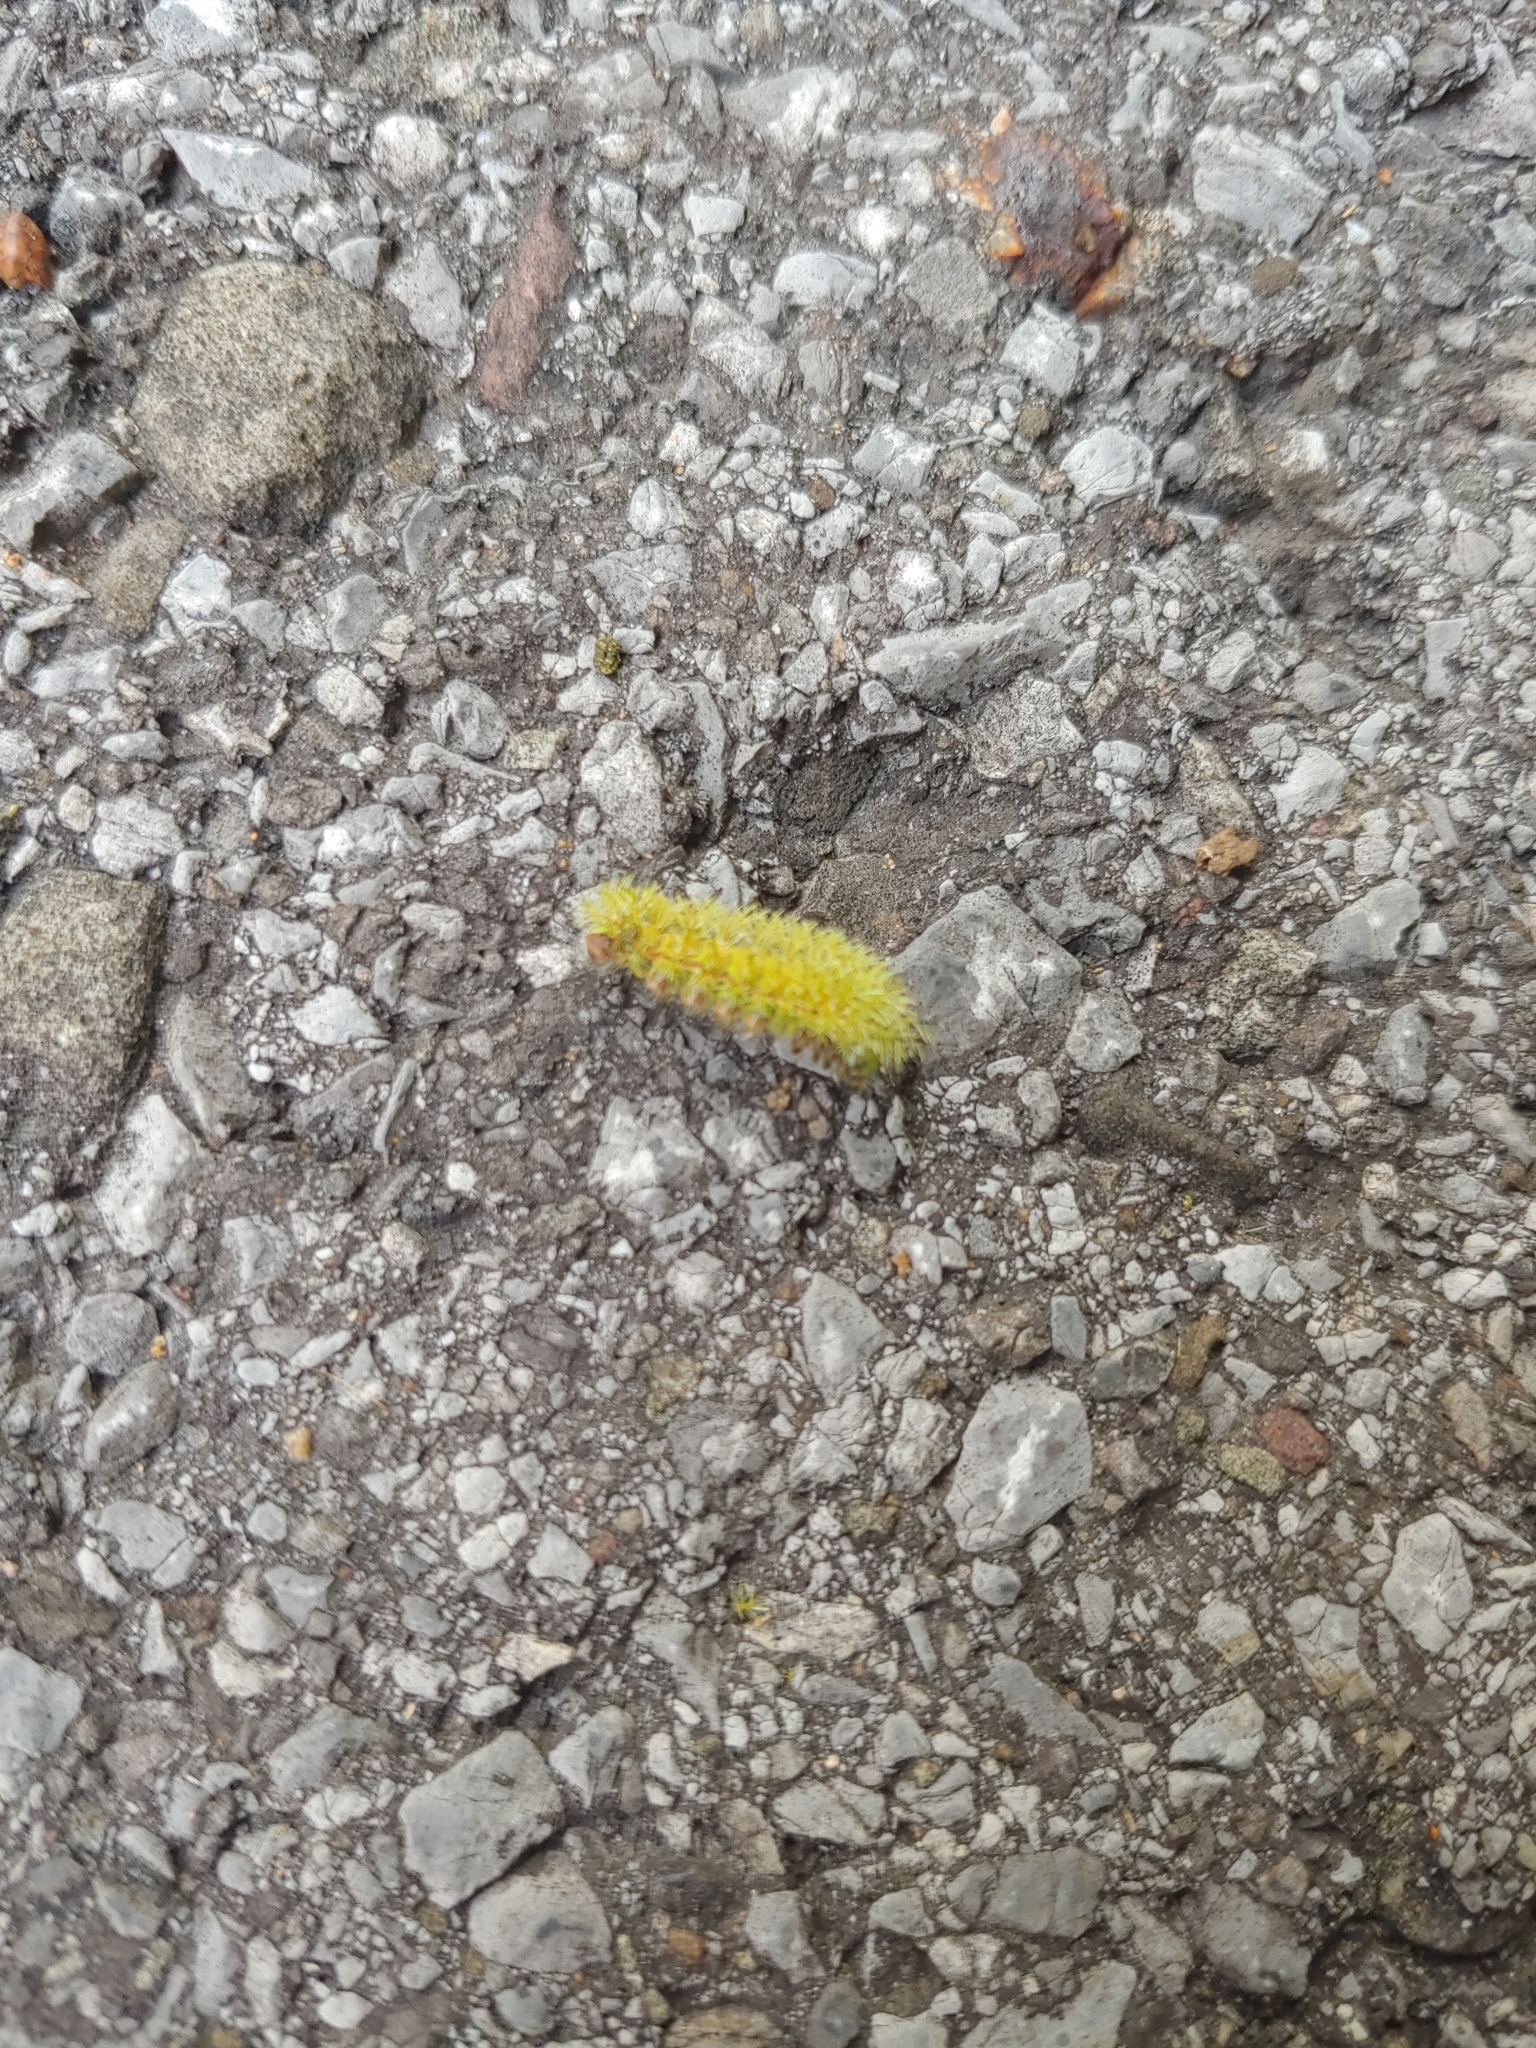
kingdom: Animalia
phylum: Arthropoda
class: Insecta
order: Lepidoptera
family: Saturniidae
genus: Automeris
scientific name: Automeris io
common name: Io moth
